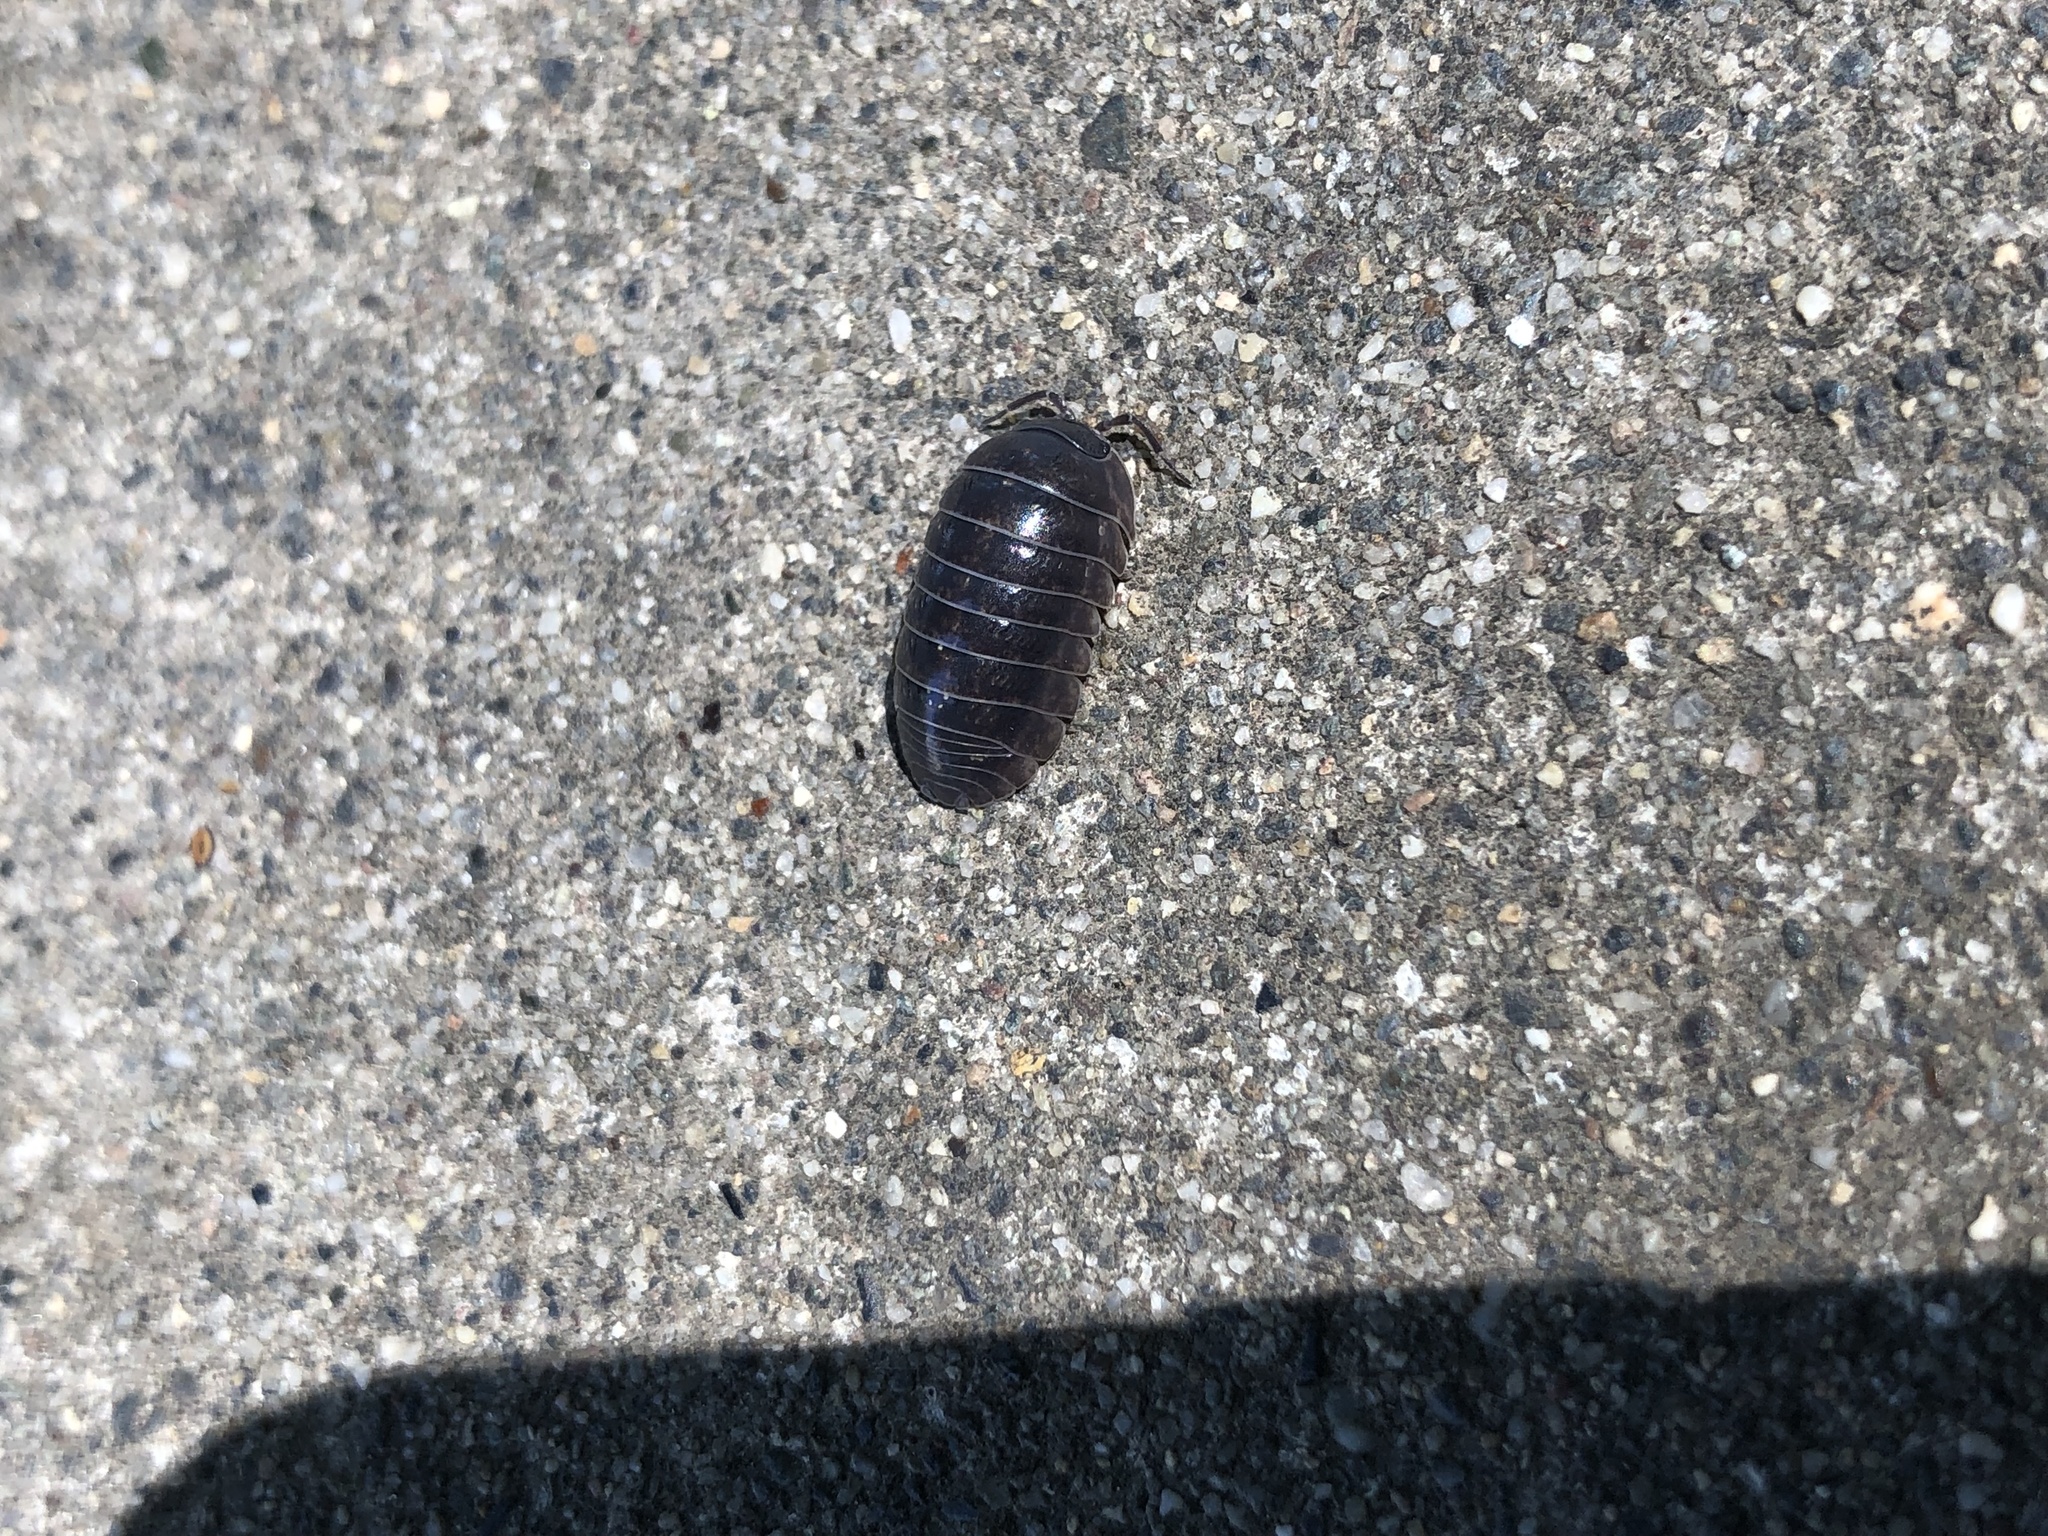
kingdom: Animalia
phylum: Arthropoda
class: Malacostraca
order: Isopoda
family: Armadillidiidae
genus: Armadillidium
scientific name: Armadillidium vulgare
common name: Common pill woodlouse
